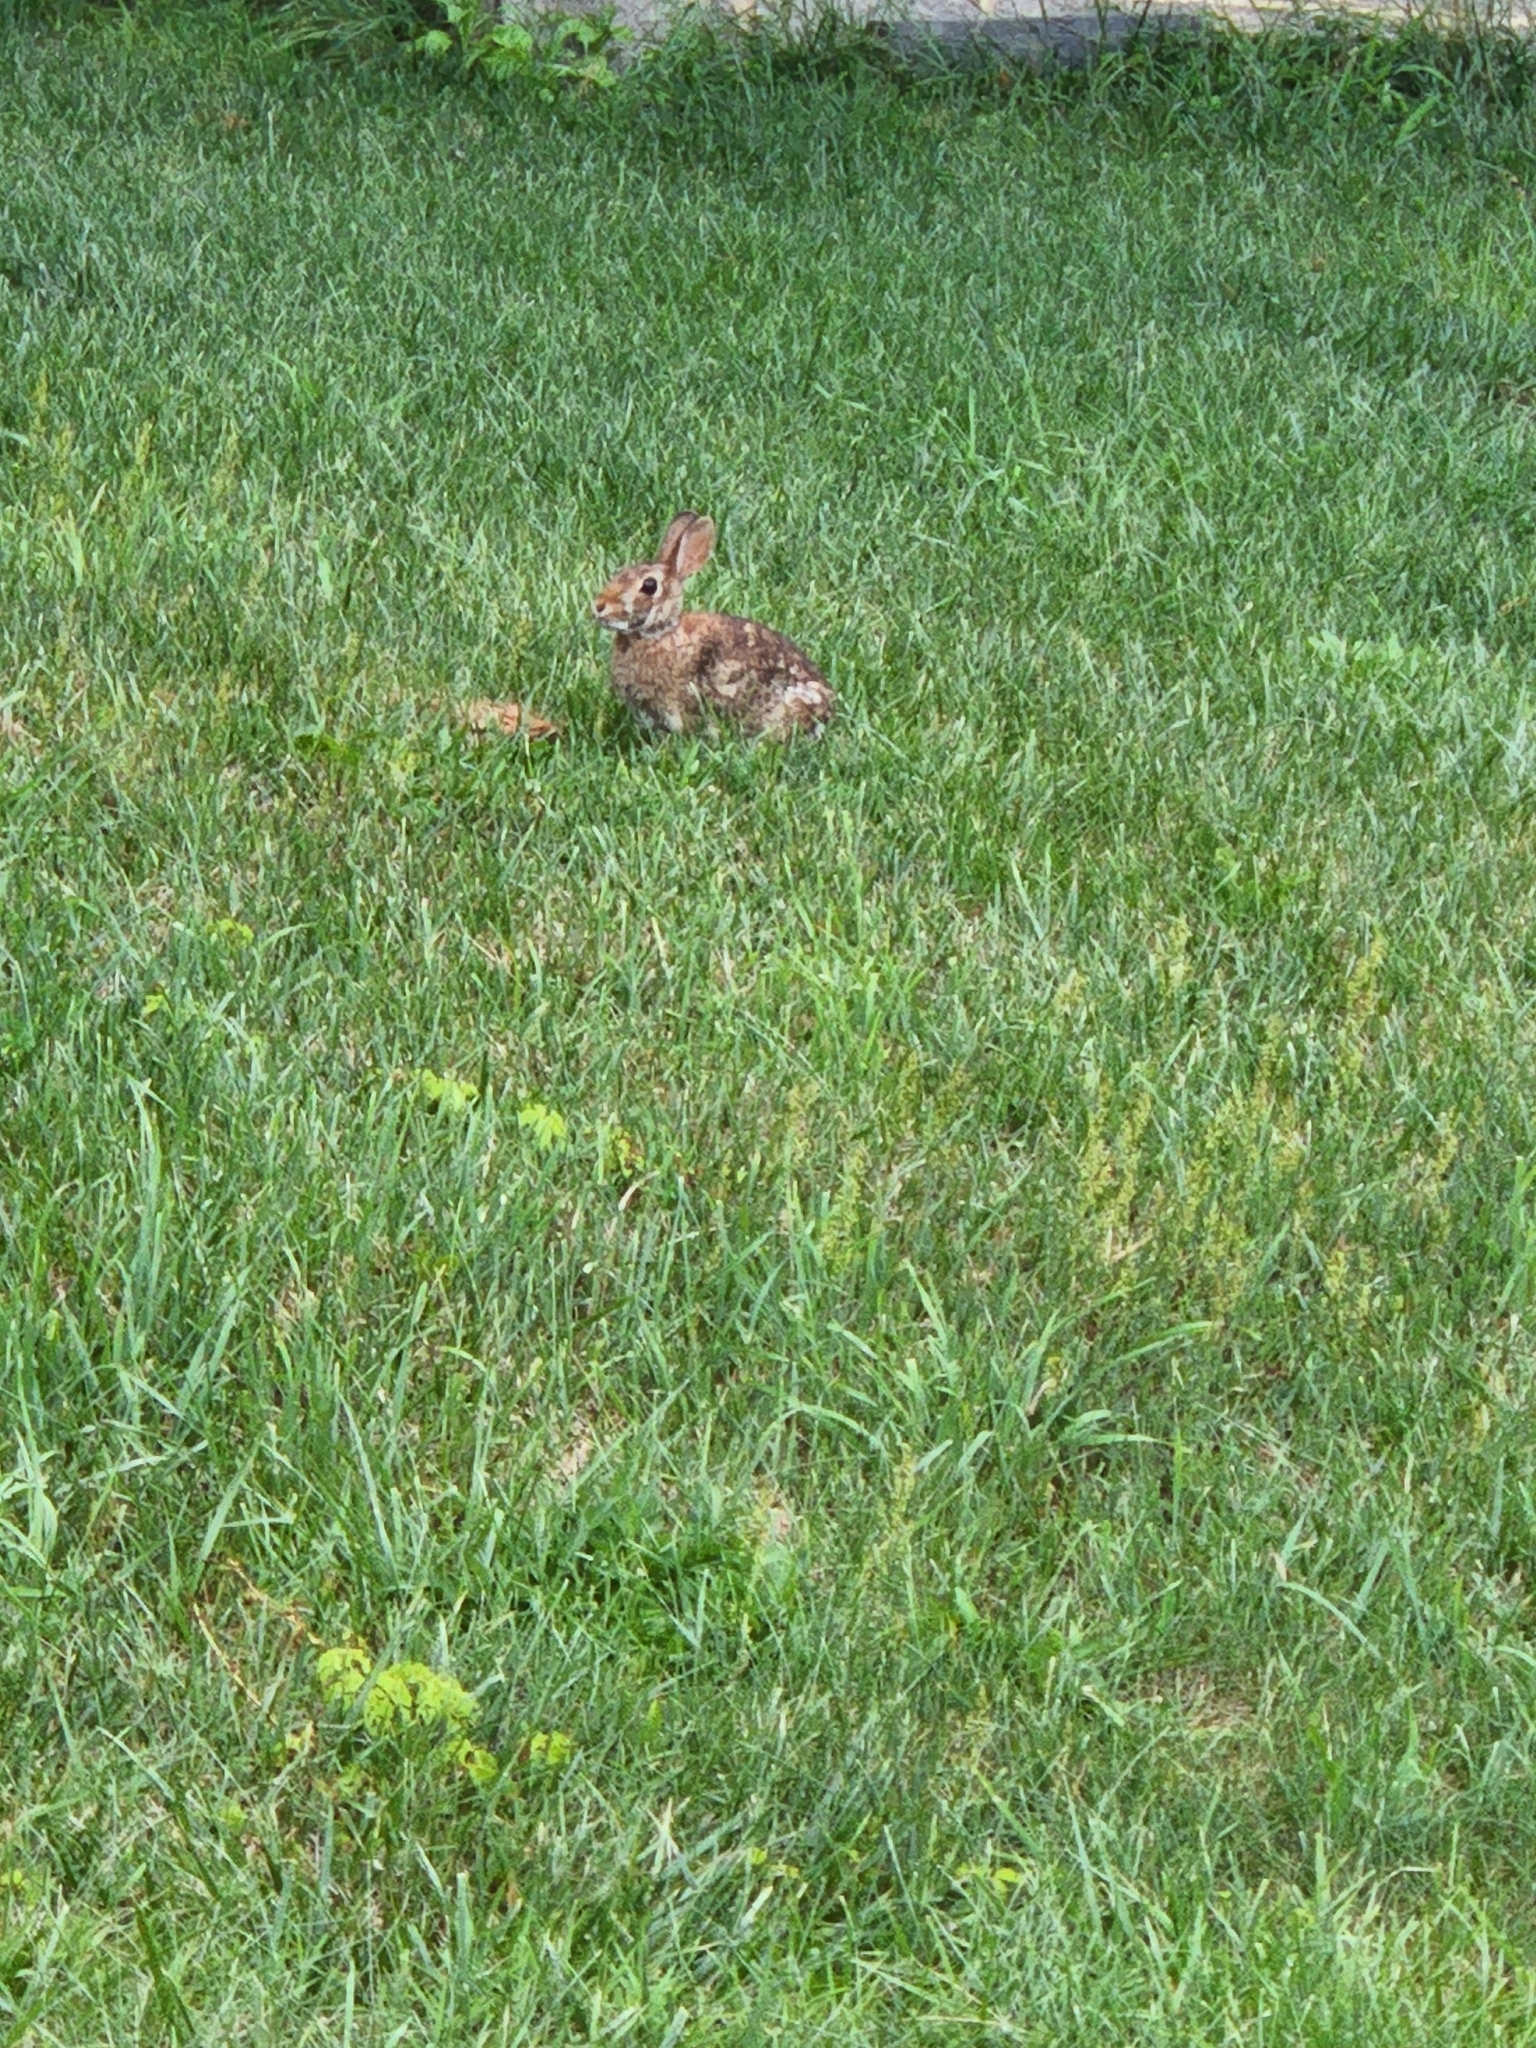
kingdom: Animalia
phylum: Chordata
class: Mammalia
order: Lagomorpha
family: Leporidae
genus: Sylvilagus
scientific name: Sylvilagus floridanus
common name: Eastern cottontail
